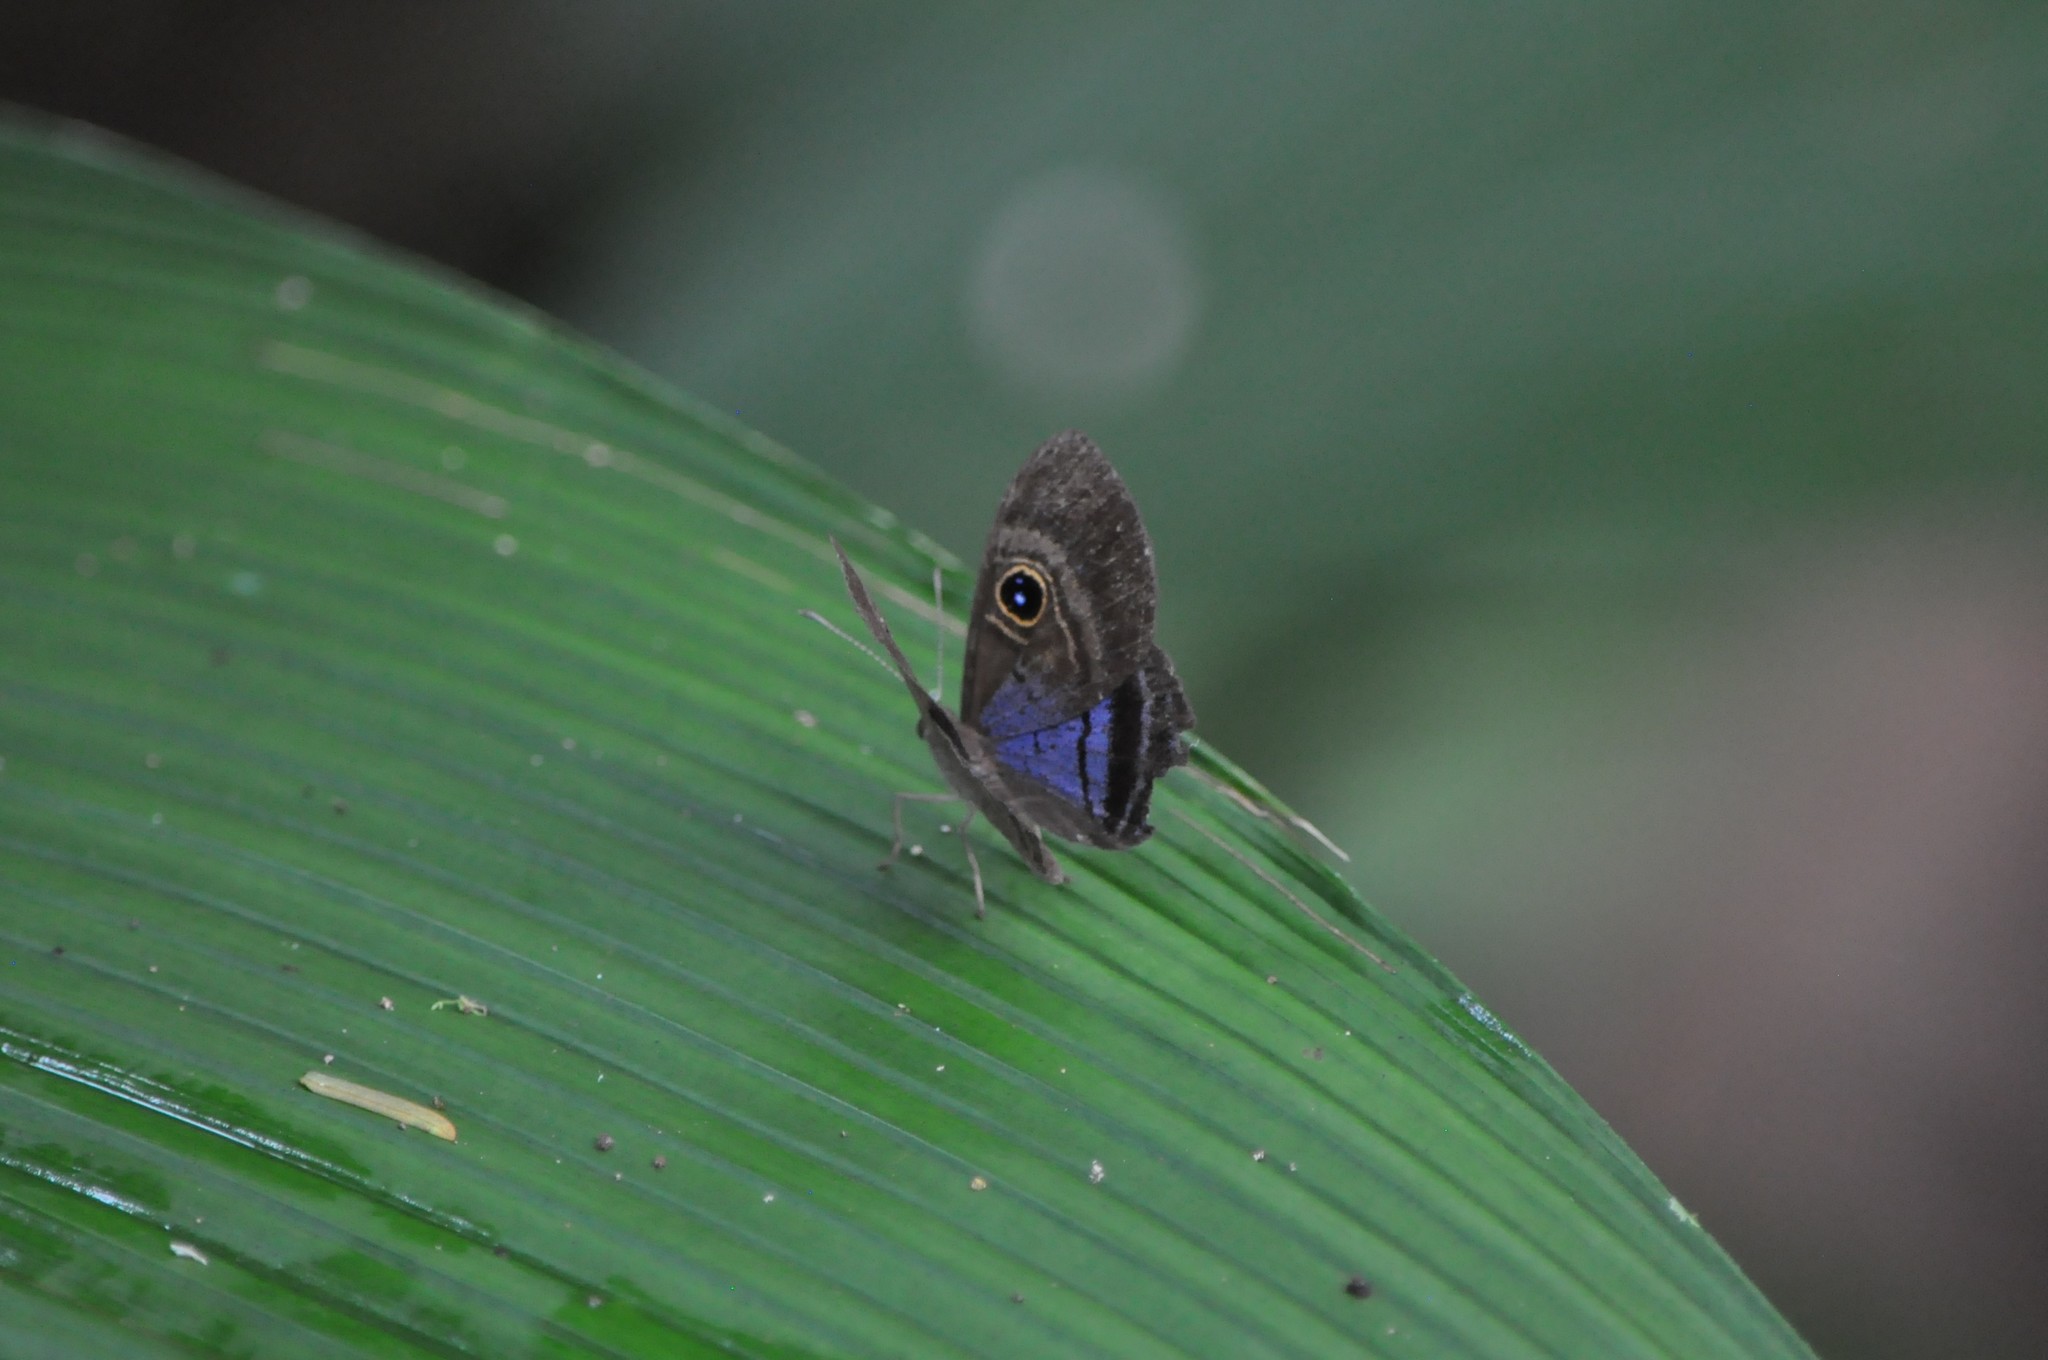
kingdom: Animalia
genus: Mesosemia
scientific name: Mesosemia lamachus
